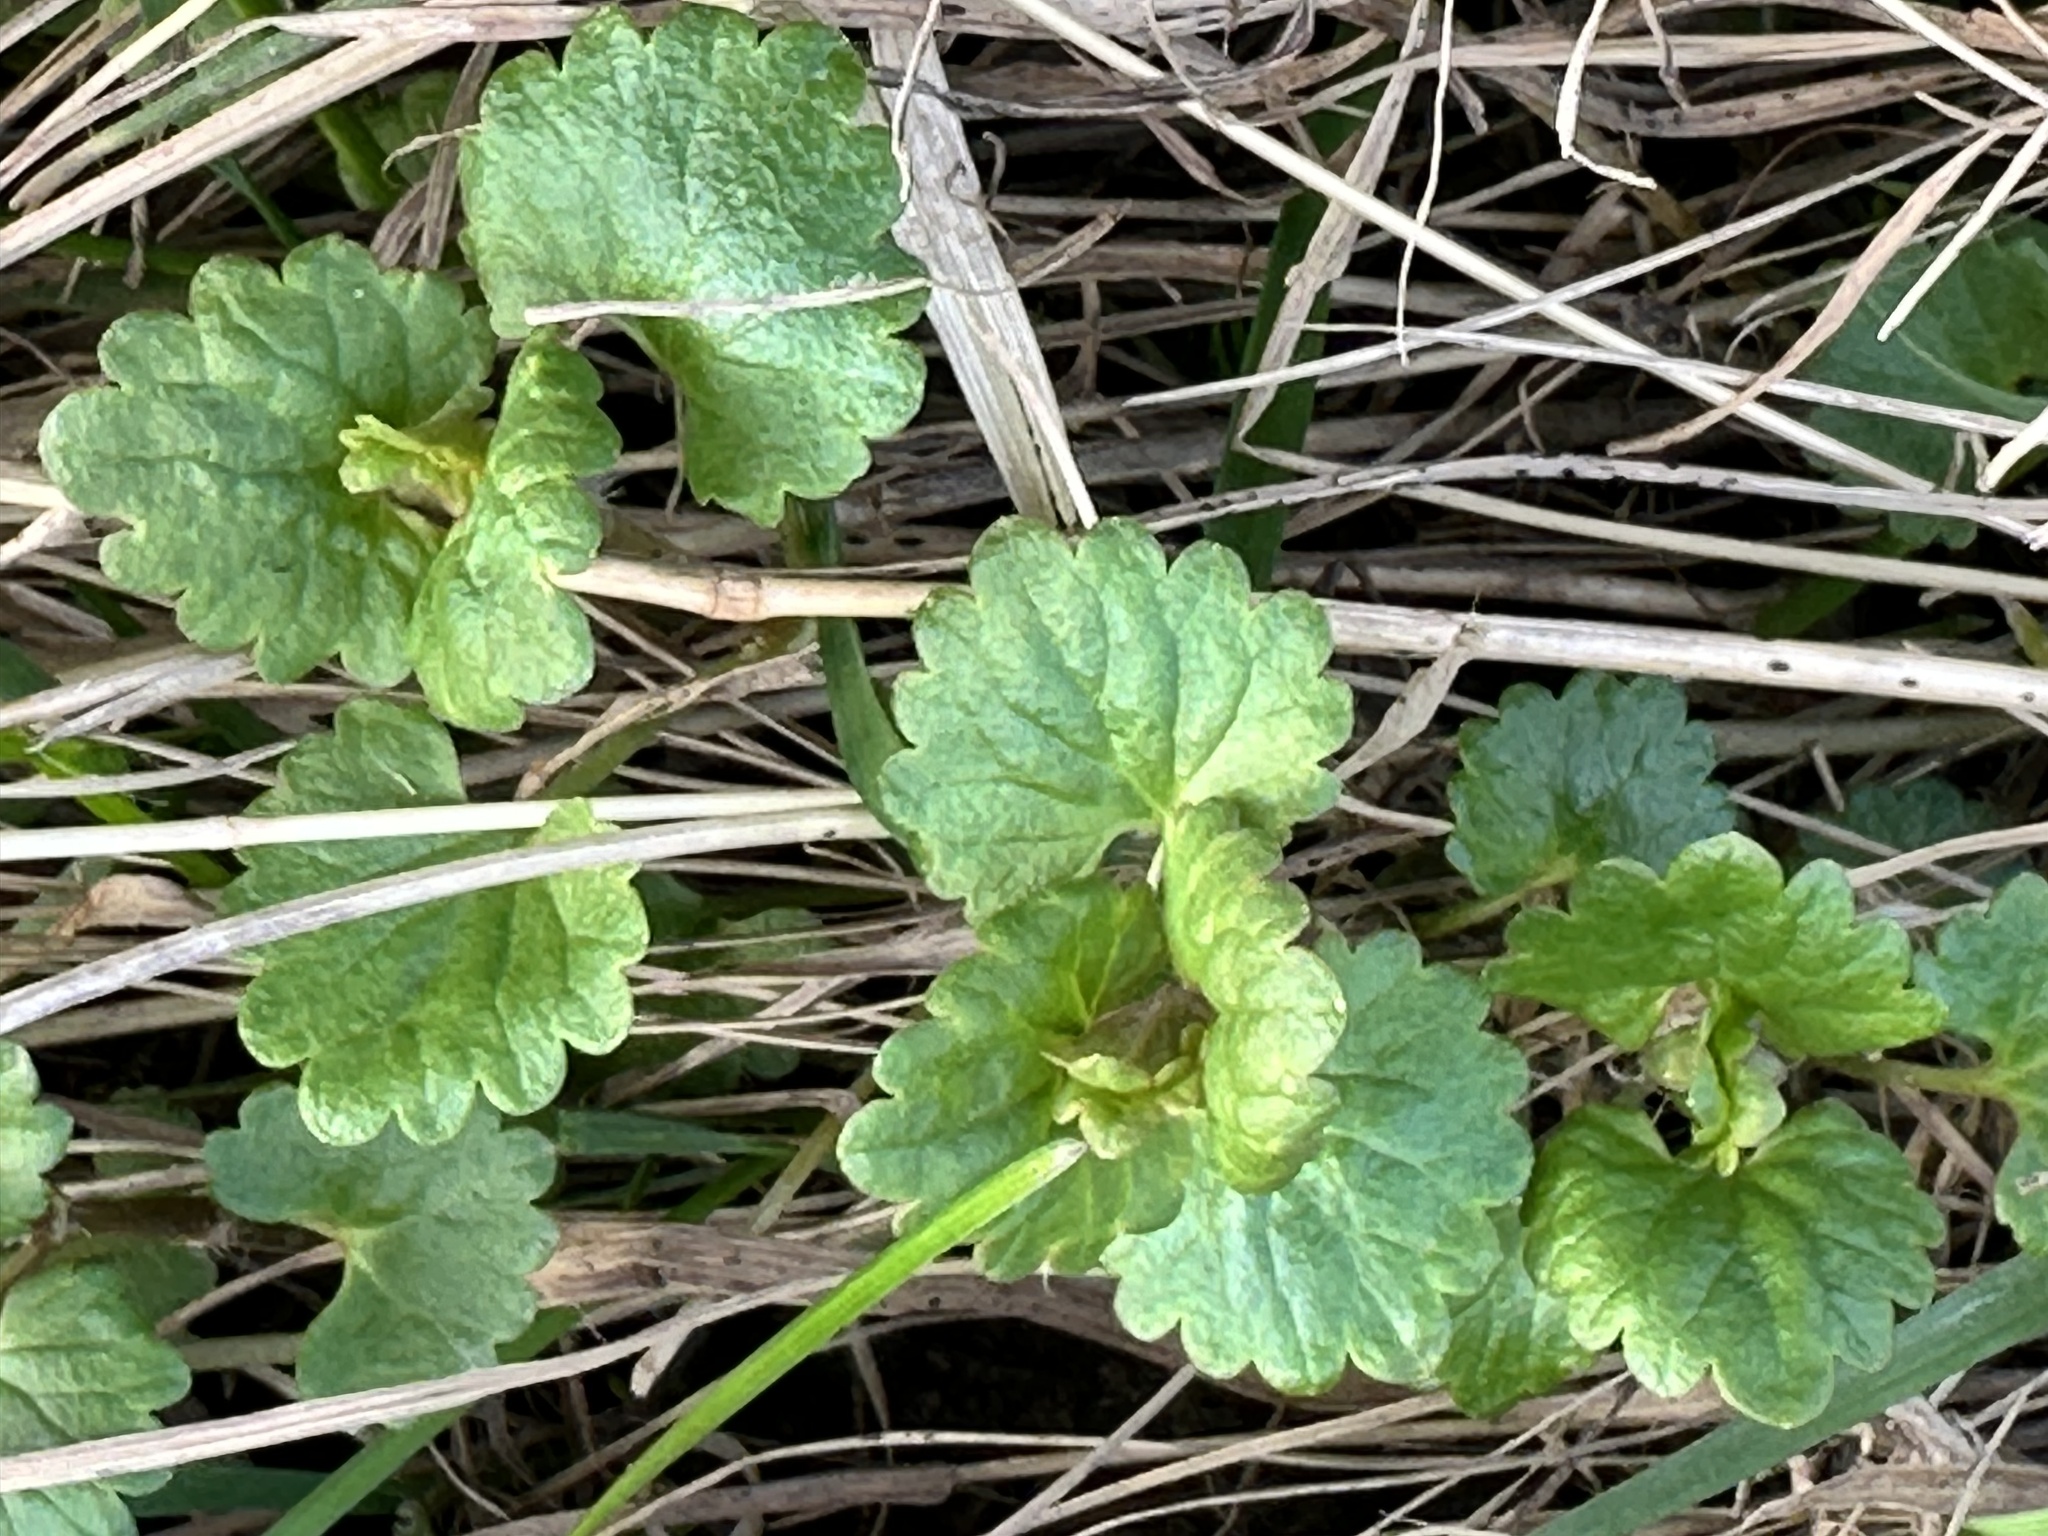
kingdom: Plantae
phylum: Tracheophyta
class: Magnoliopsida
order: Lamiales
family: Lamiaceae
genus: Glechoma
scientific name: Glechoma hederacea
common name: Ground ivy
